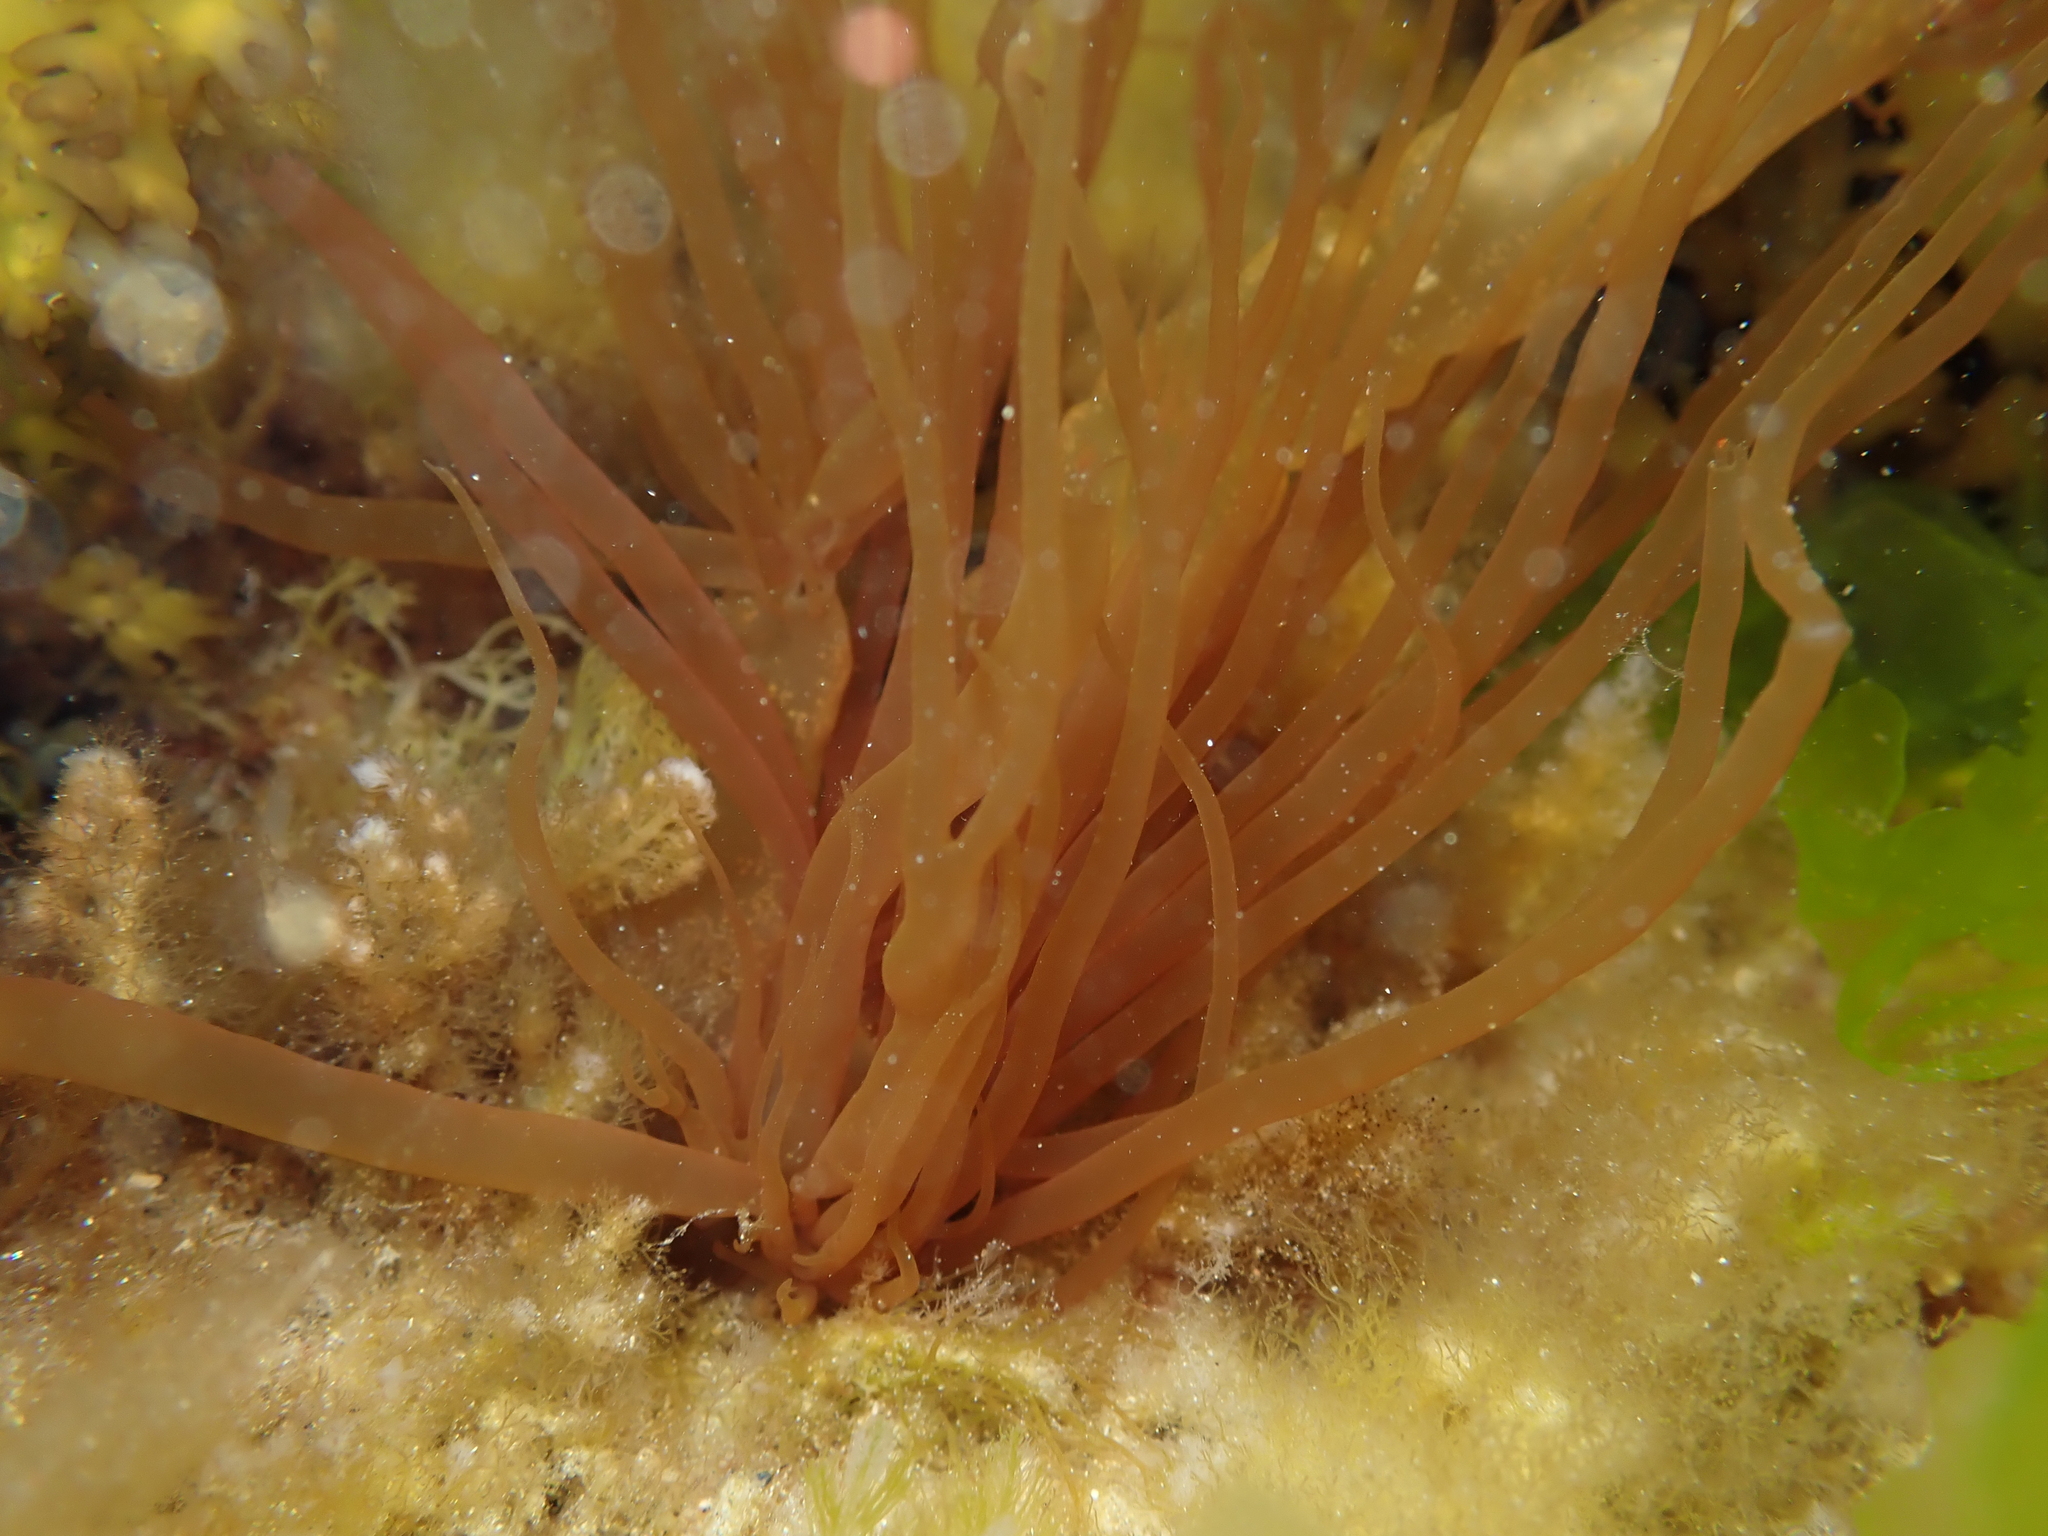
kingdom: Plantae
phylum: Rhodophyta
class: Florideophyceae
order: Halymeniales
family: Halymeniaceae
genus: Glaphyrosiphon
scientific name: Glaphyrosiphon lindaueri
